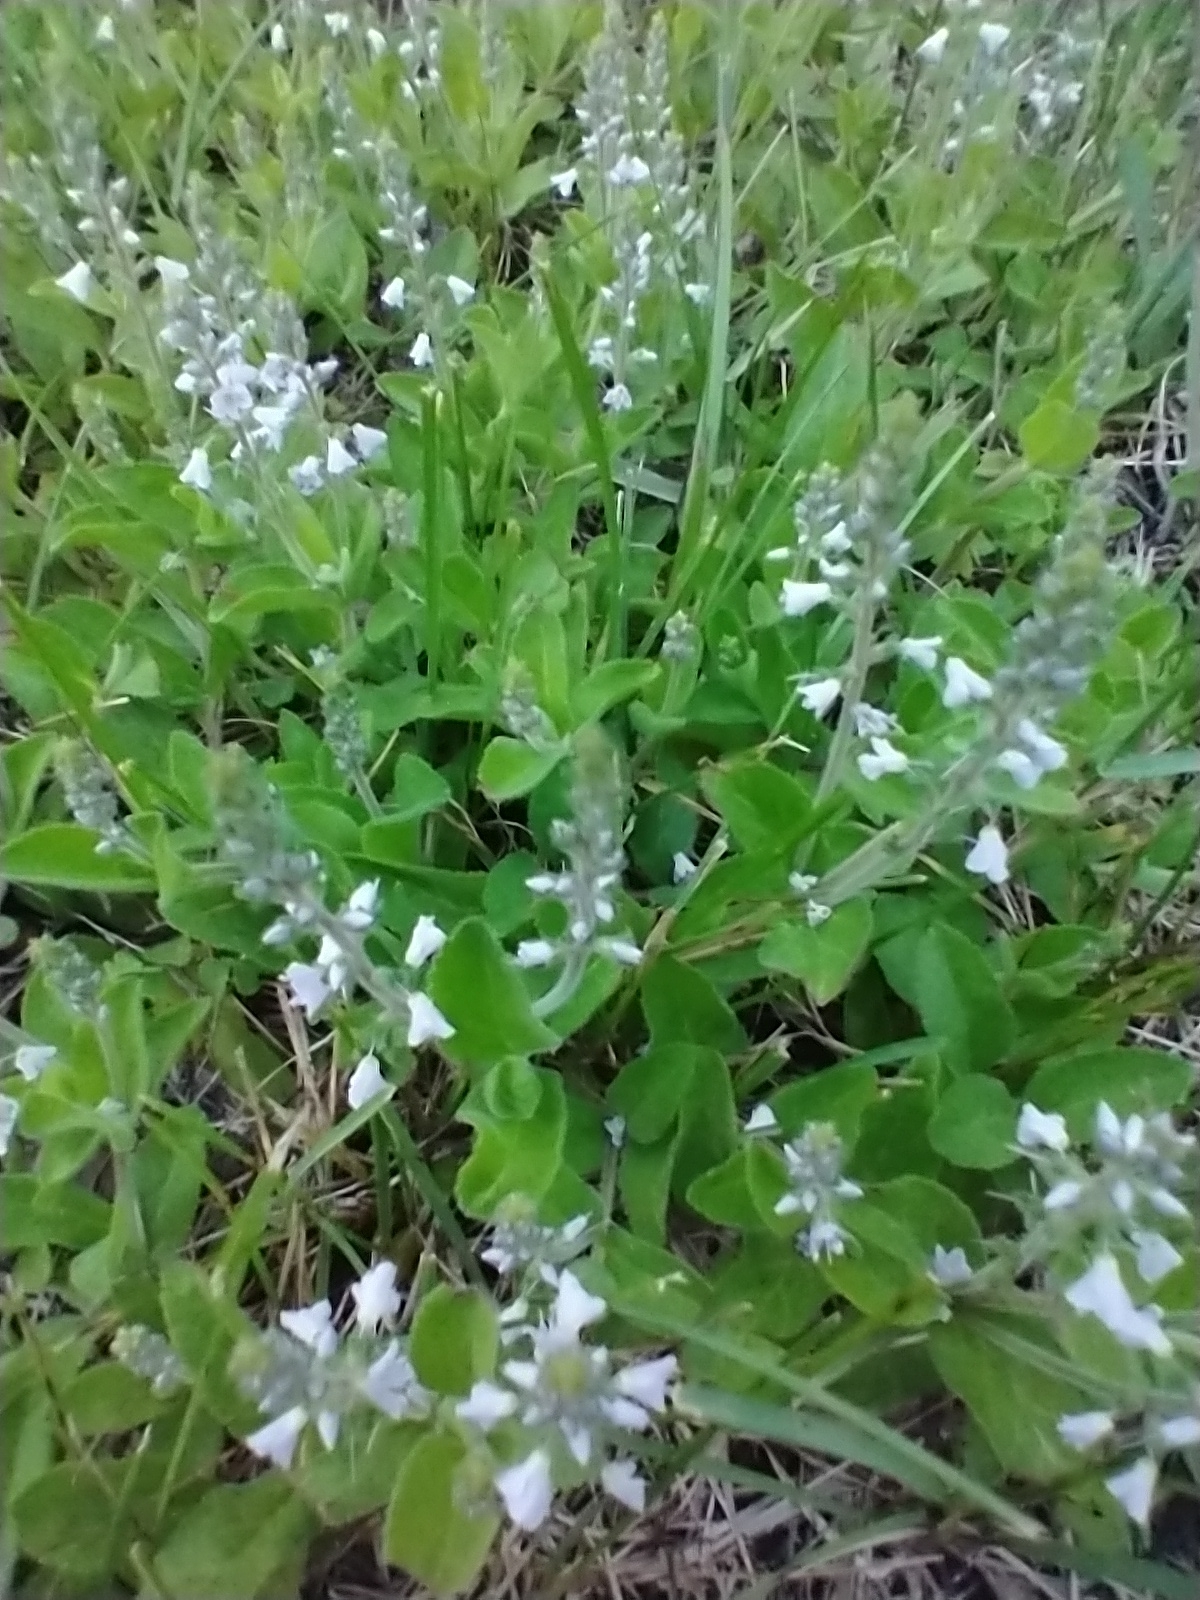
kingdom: Plantae
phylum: Tracheophyta
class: Magnoliopsida
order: Lamiales
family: Plantaginaceae
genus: Veronica
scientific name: Veronica officinalis
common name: Common speedwell
